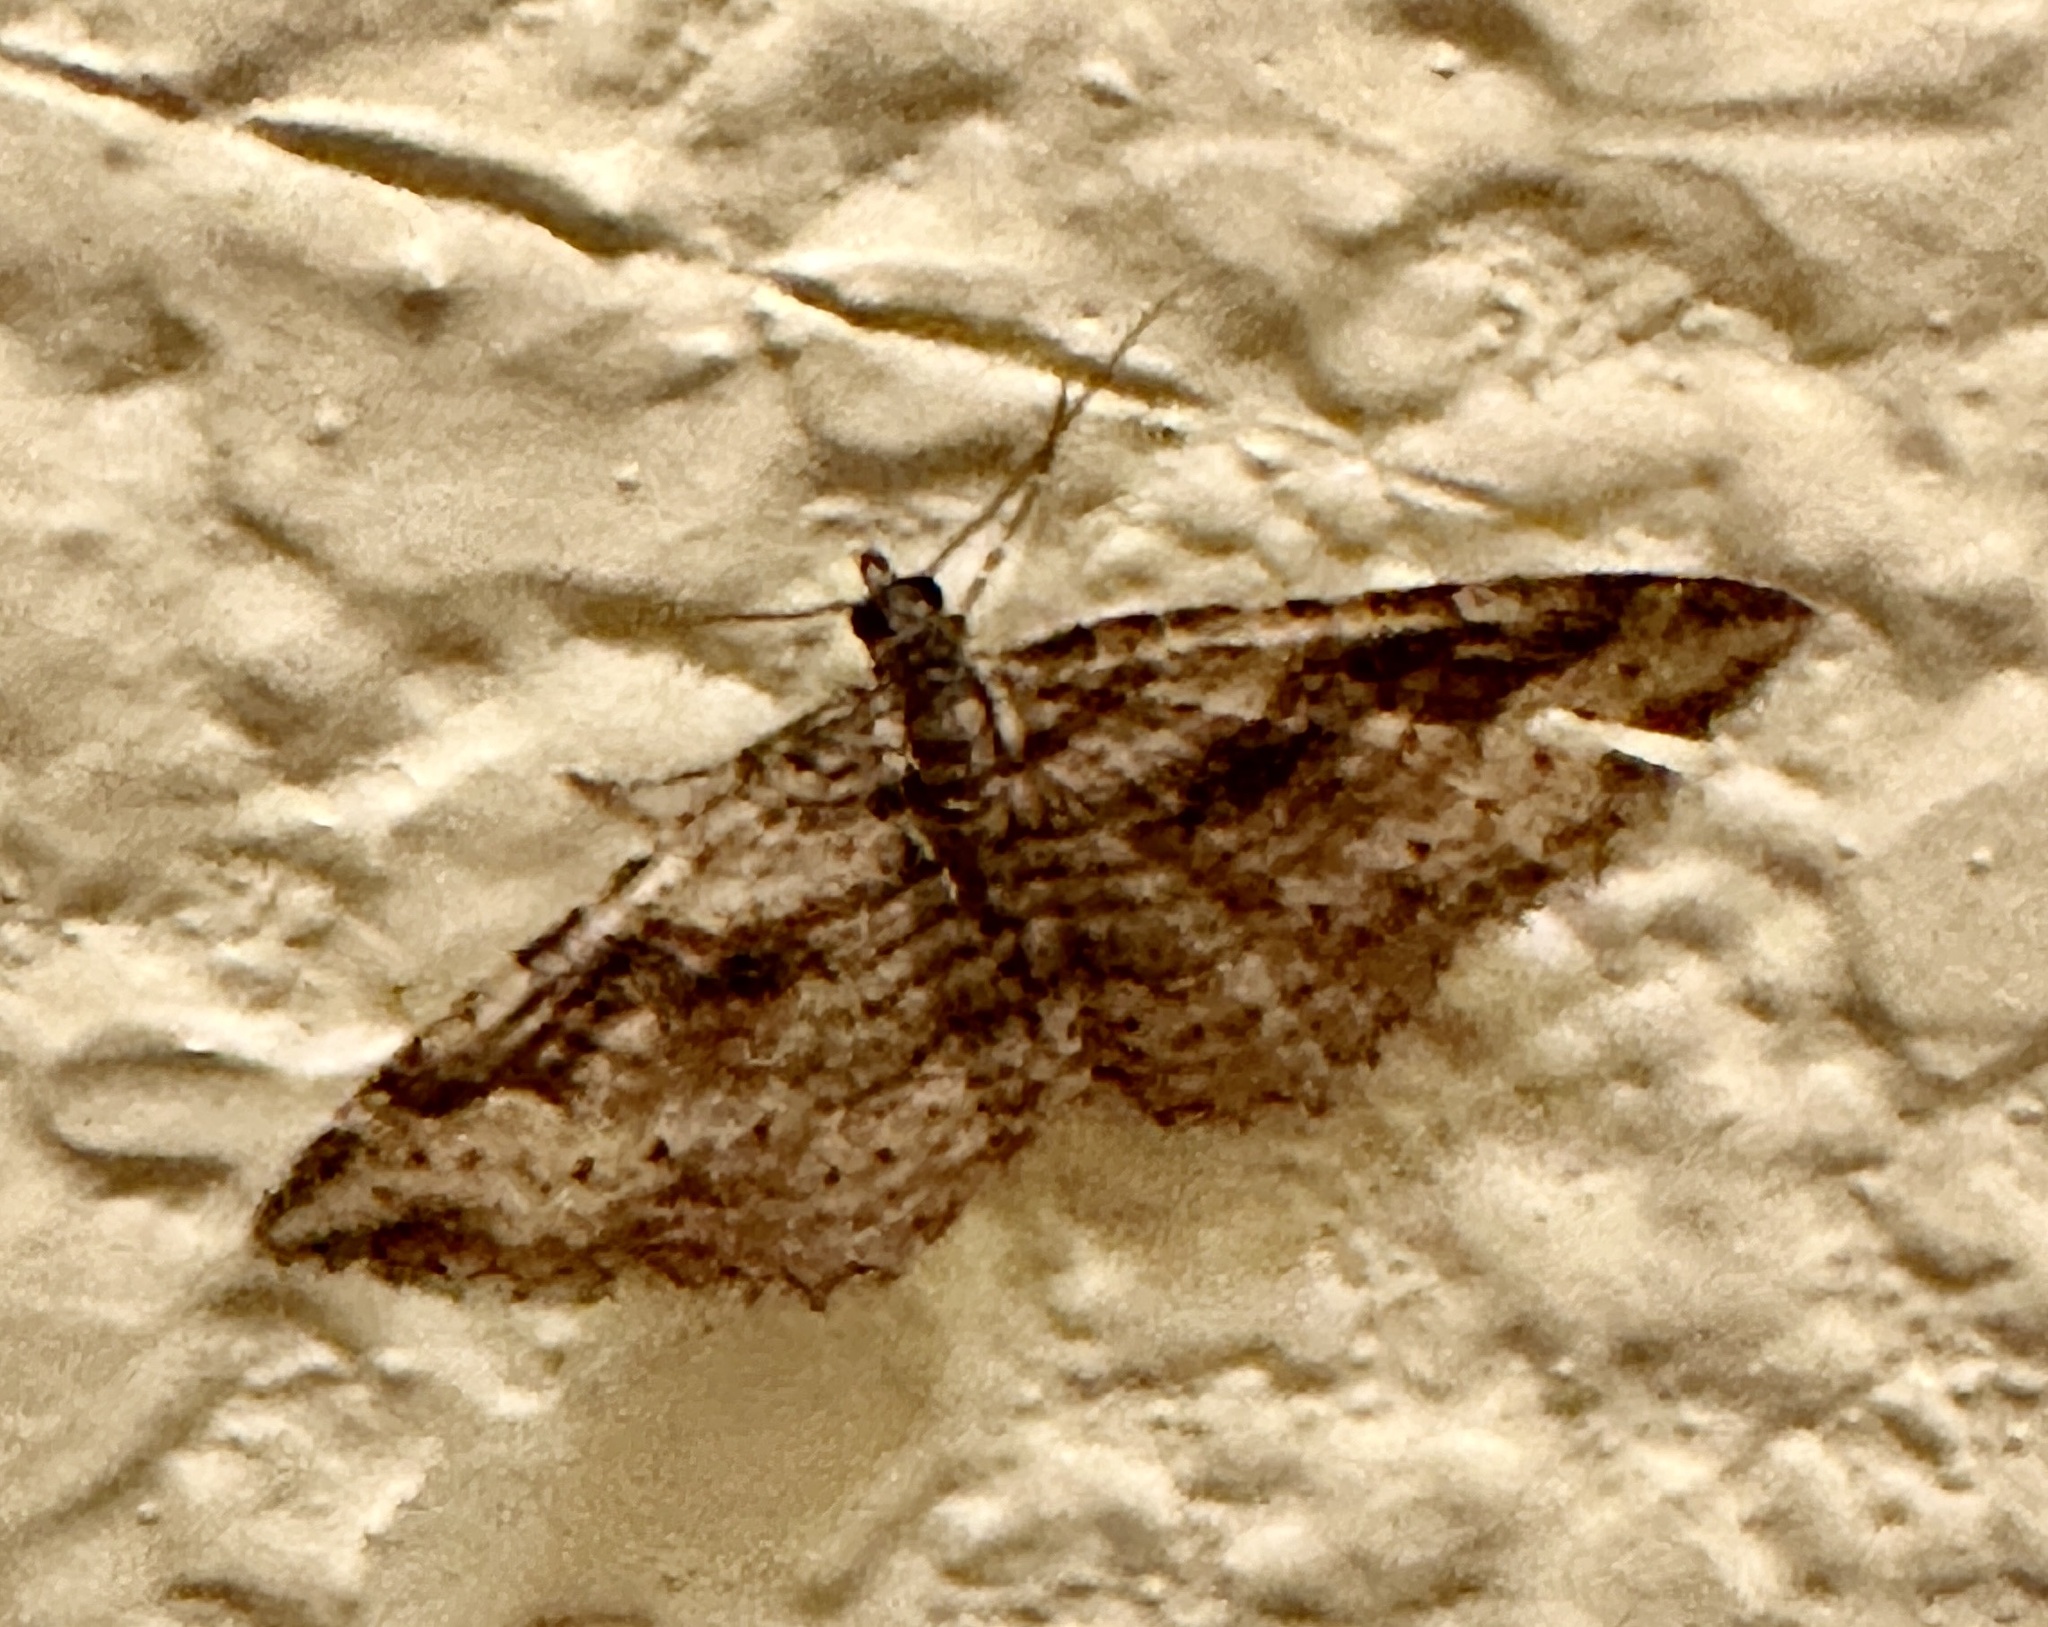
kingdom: Animalia
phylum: Arthropoda
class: Insecta
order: Lepidoptera
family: Geometridae
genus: Costaconvexa
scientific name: Costaconvexa centrostrigaria
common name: Bent-line carpet
